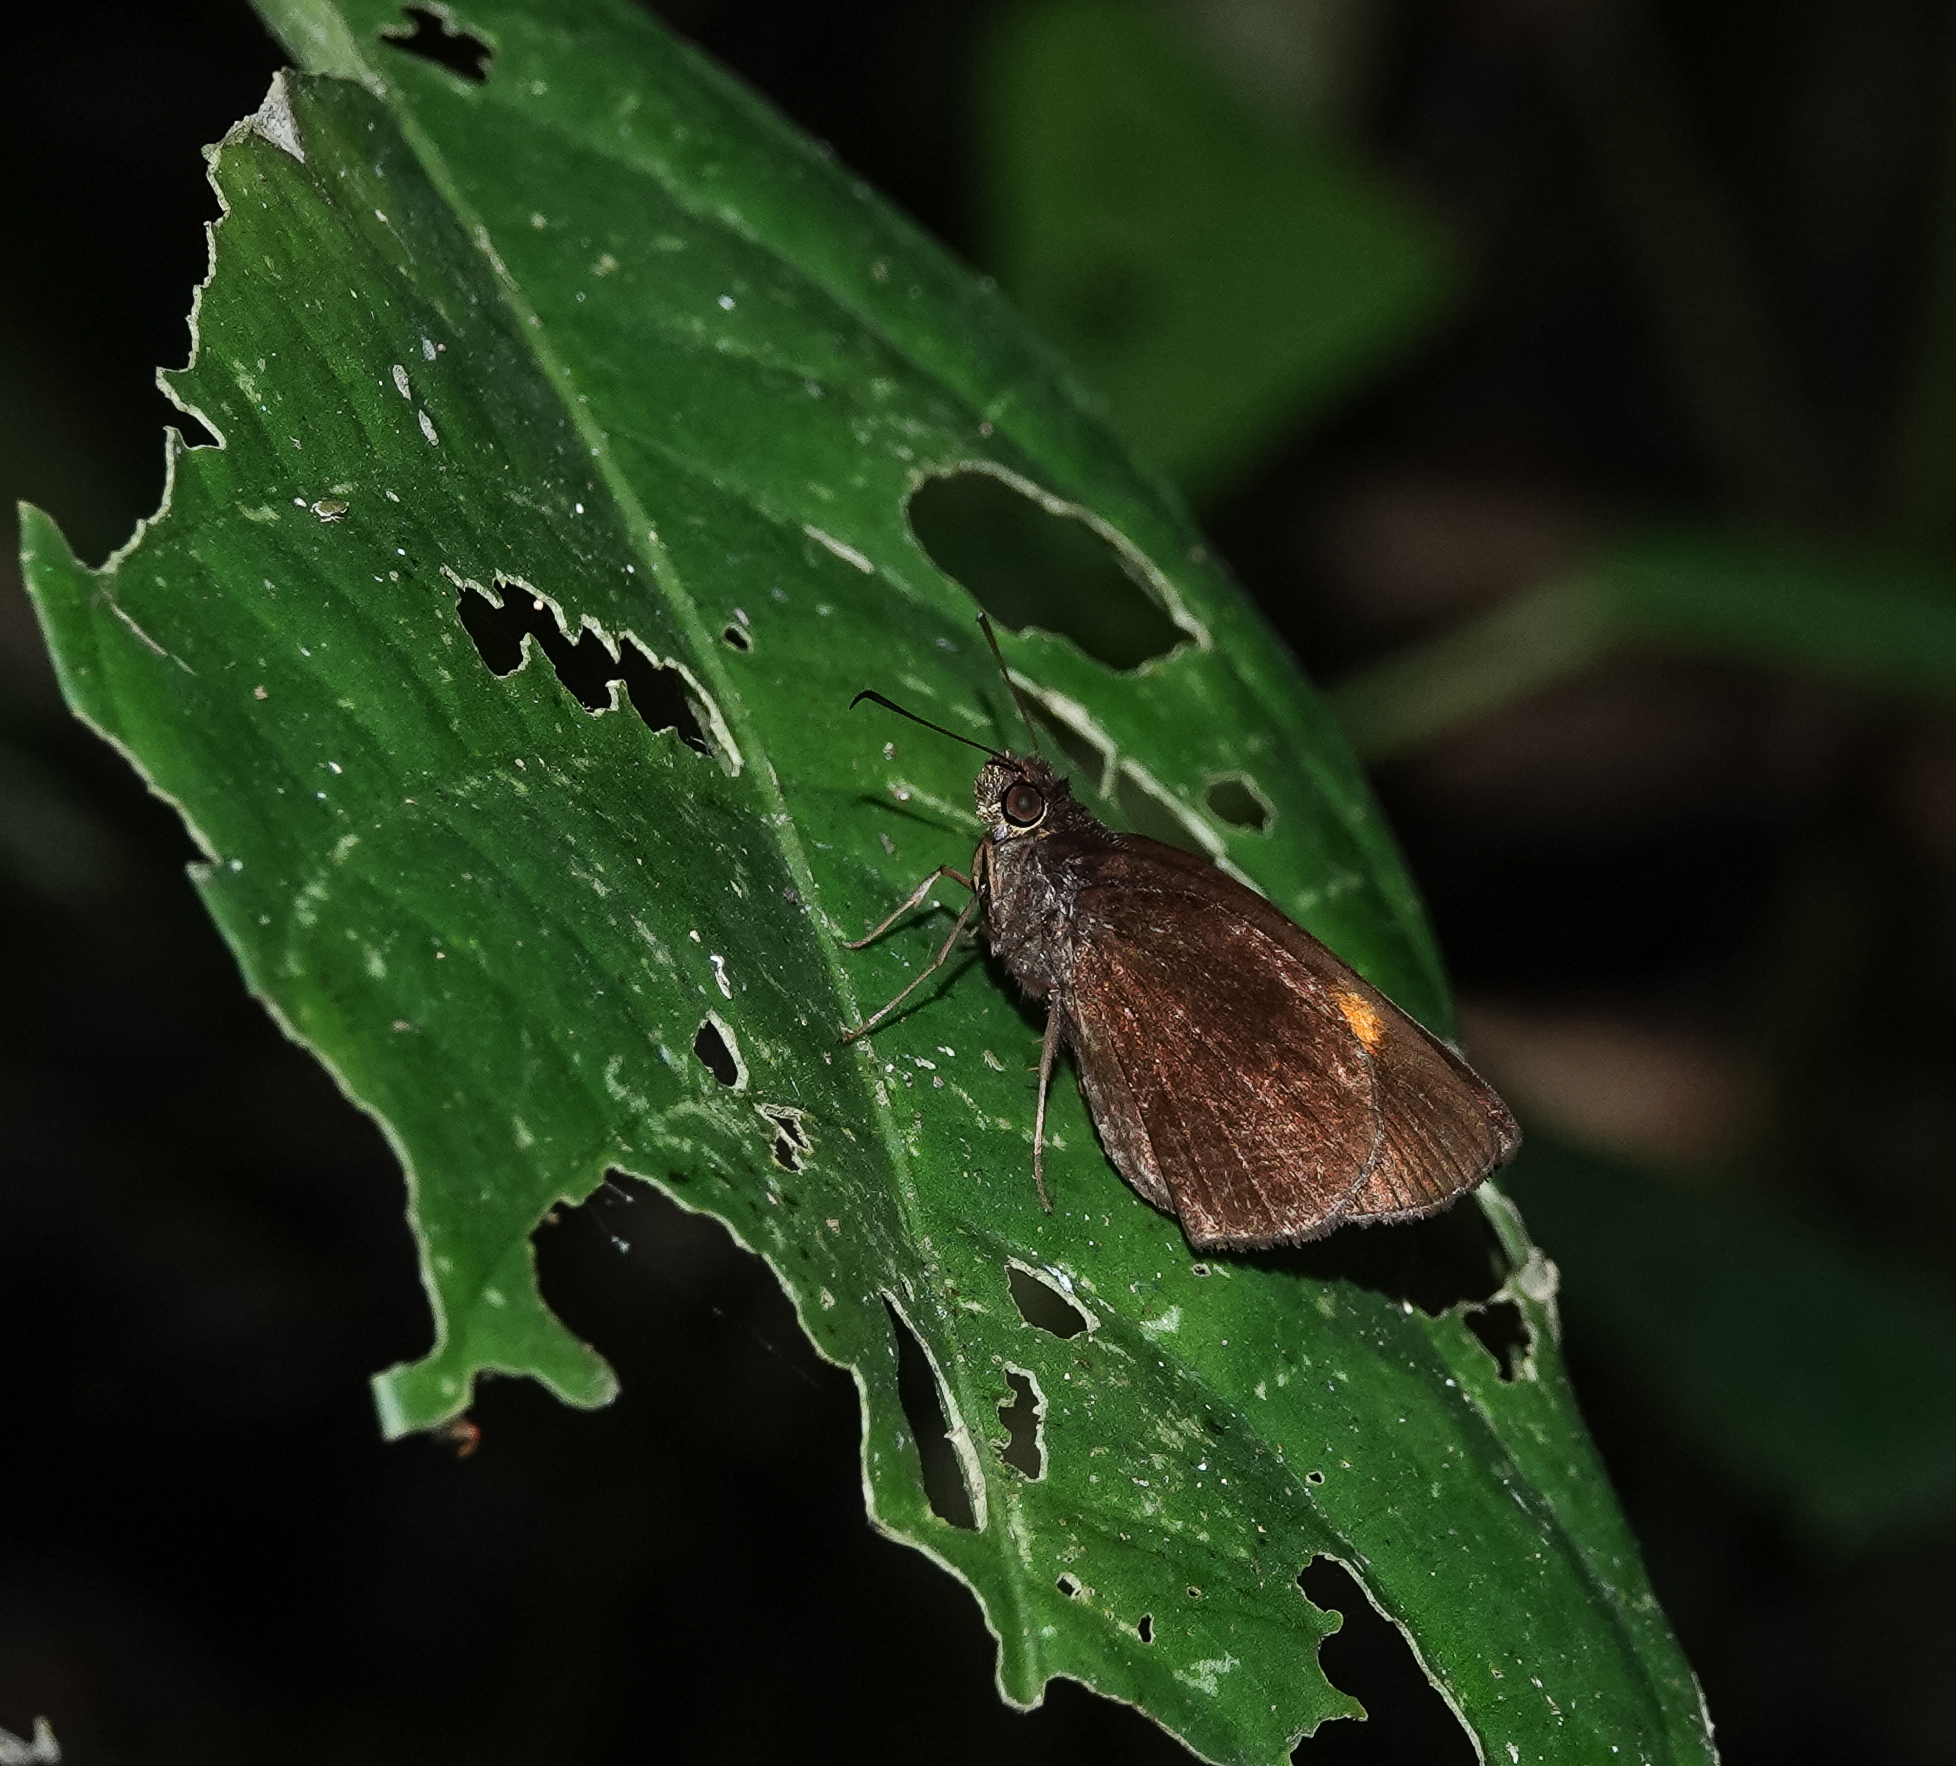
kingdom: Animalia
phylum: Arthropoda
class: Insecta
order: Lepidoptera
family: Hesperiidae
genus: Koruthaialos
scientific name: Koruthaialos sindu
